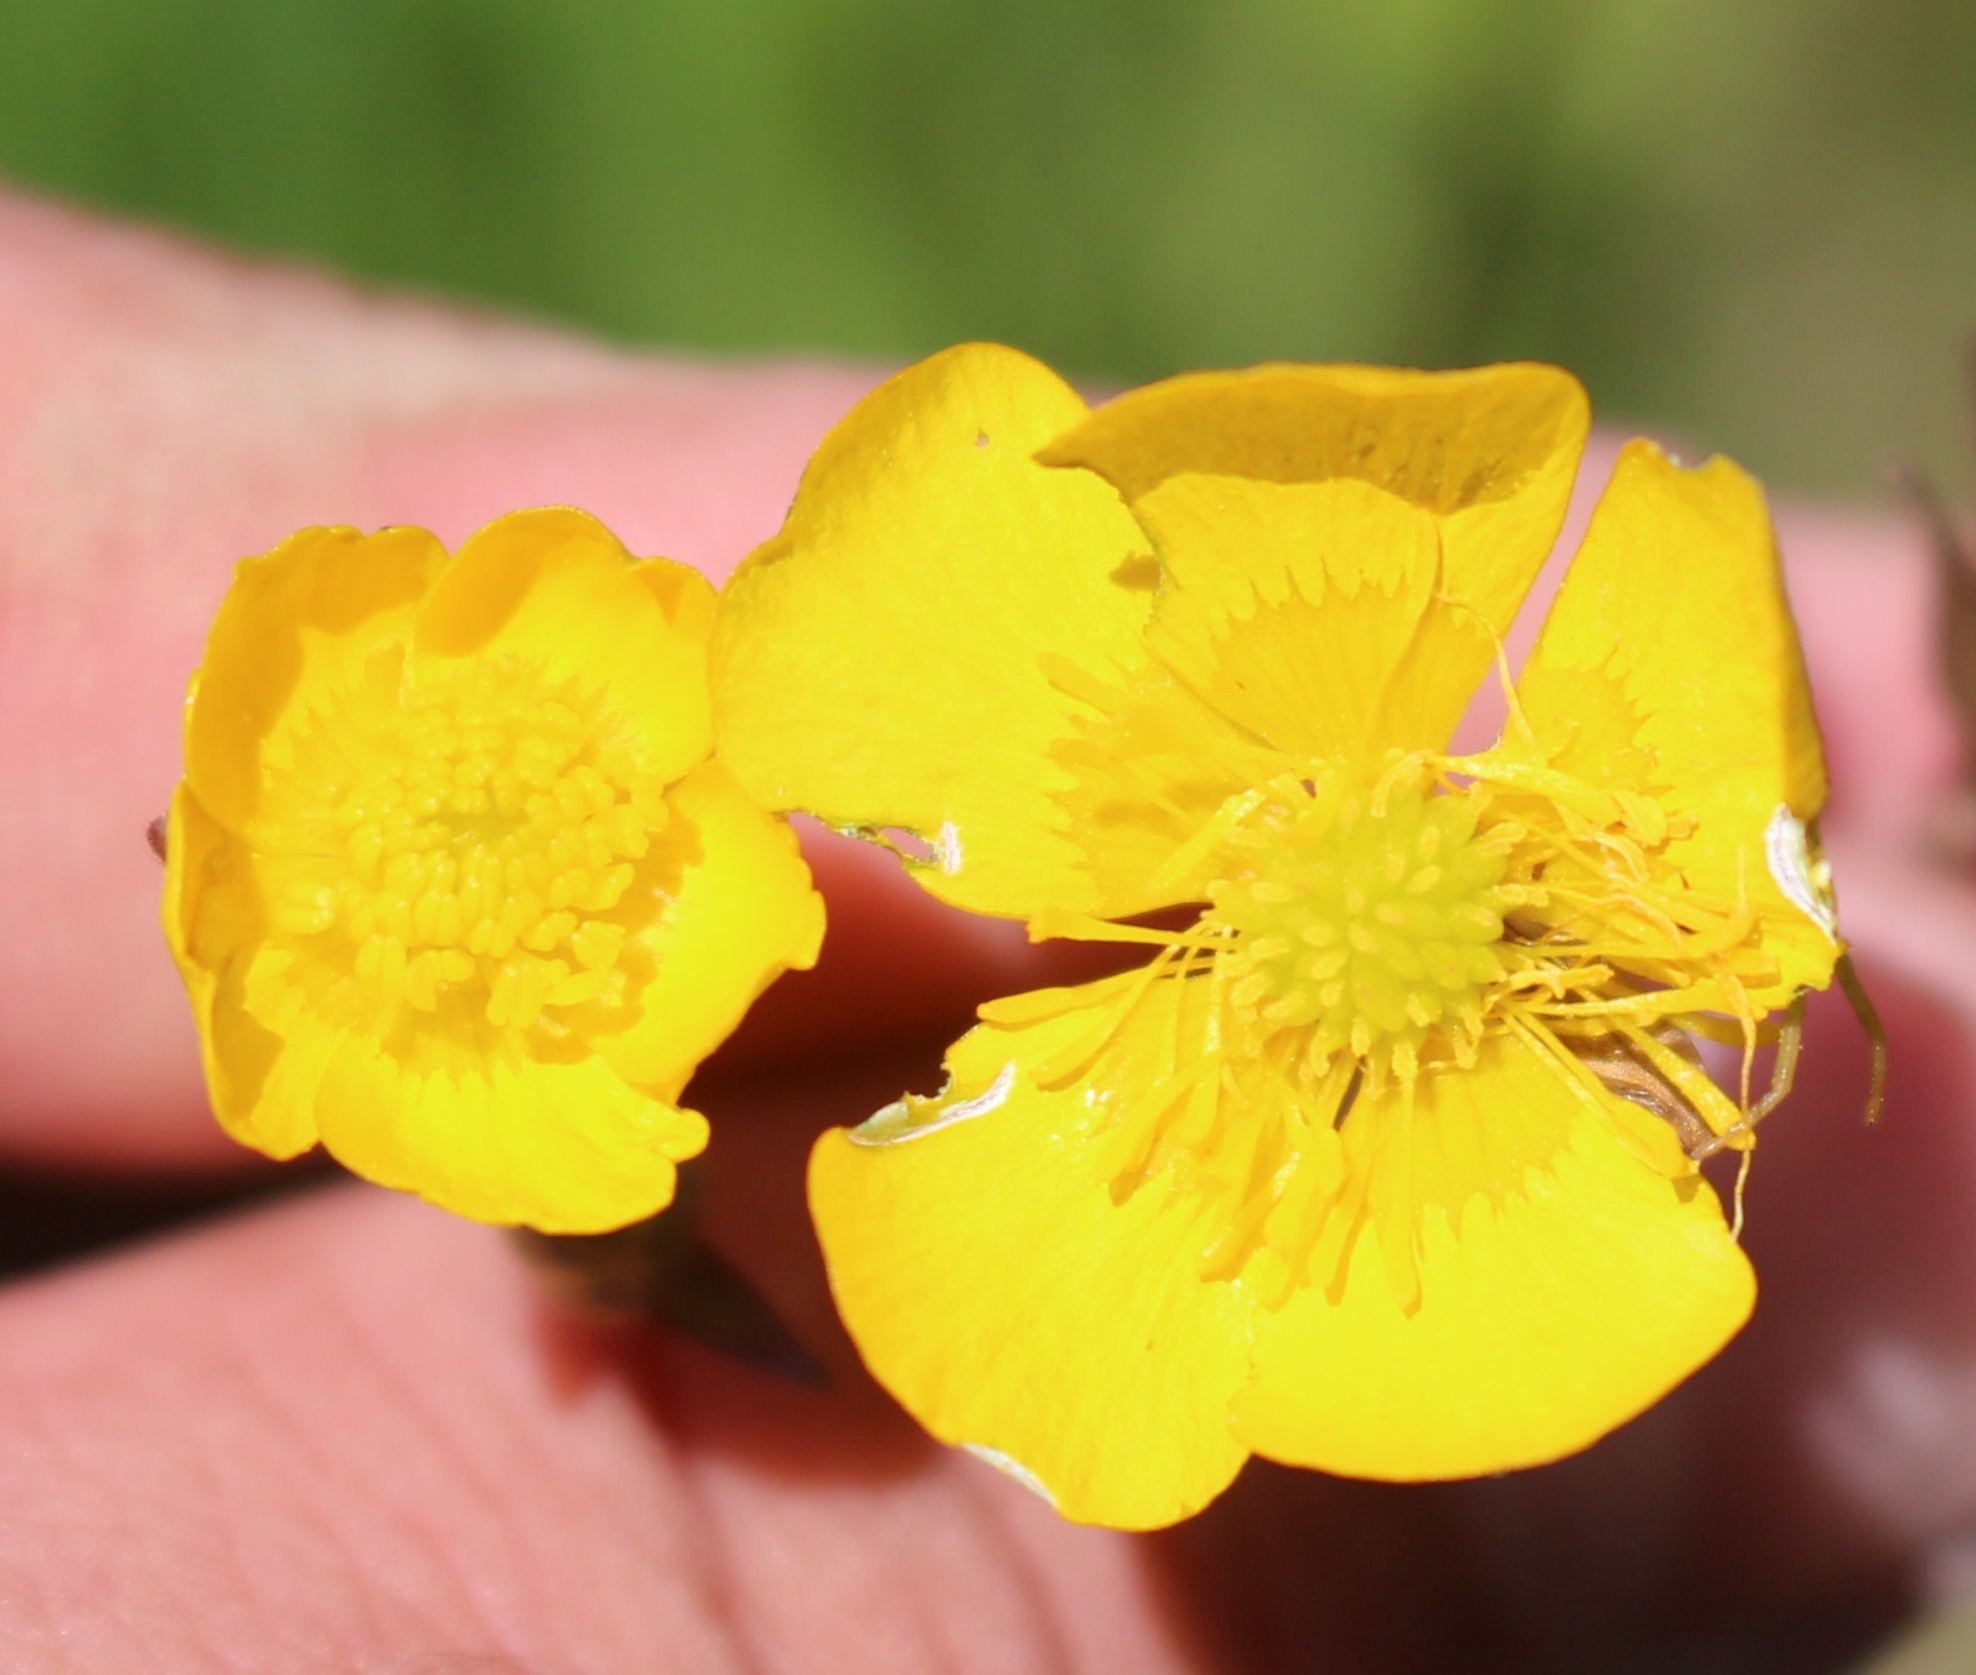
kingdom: Plantae
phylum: Tracheophyta
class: Magnoliopsida
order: Ranunculales
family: Ranunculaceae
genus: Ranunculus
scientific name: Ranunculus repens
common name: Creeping buttercup
